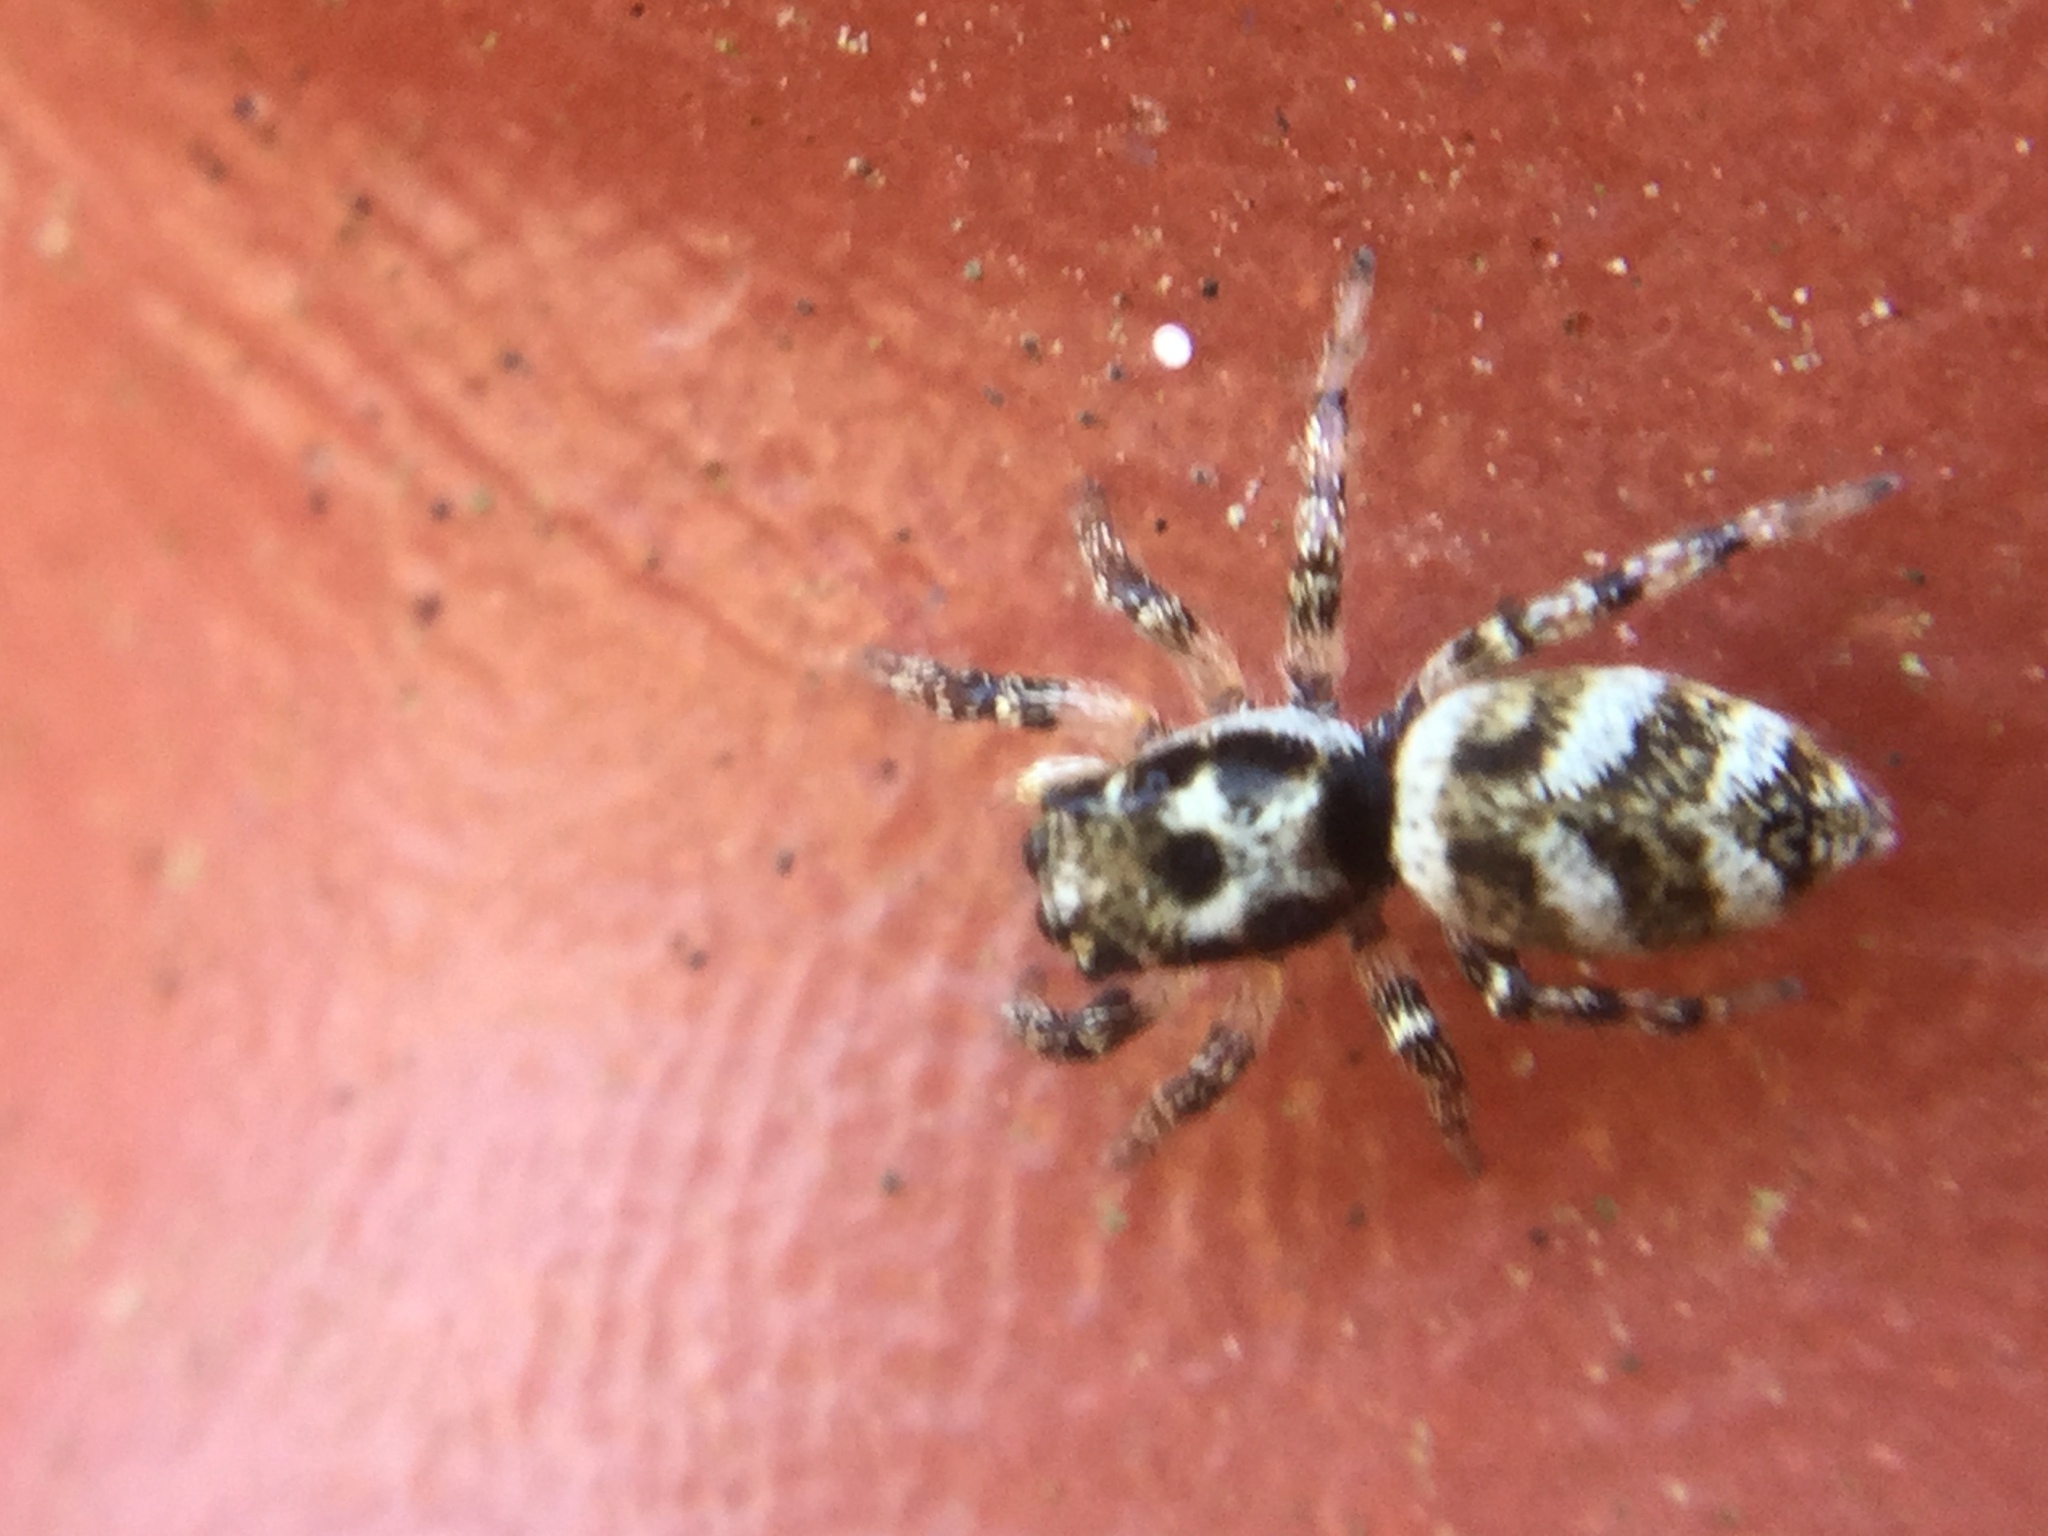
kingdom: Animalia
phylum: Arthropoda
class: Arachnida
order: Araneae
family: Salticidae
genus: Salticus
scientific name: Salticus scenicus
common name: Zebra jumper
